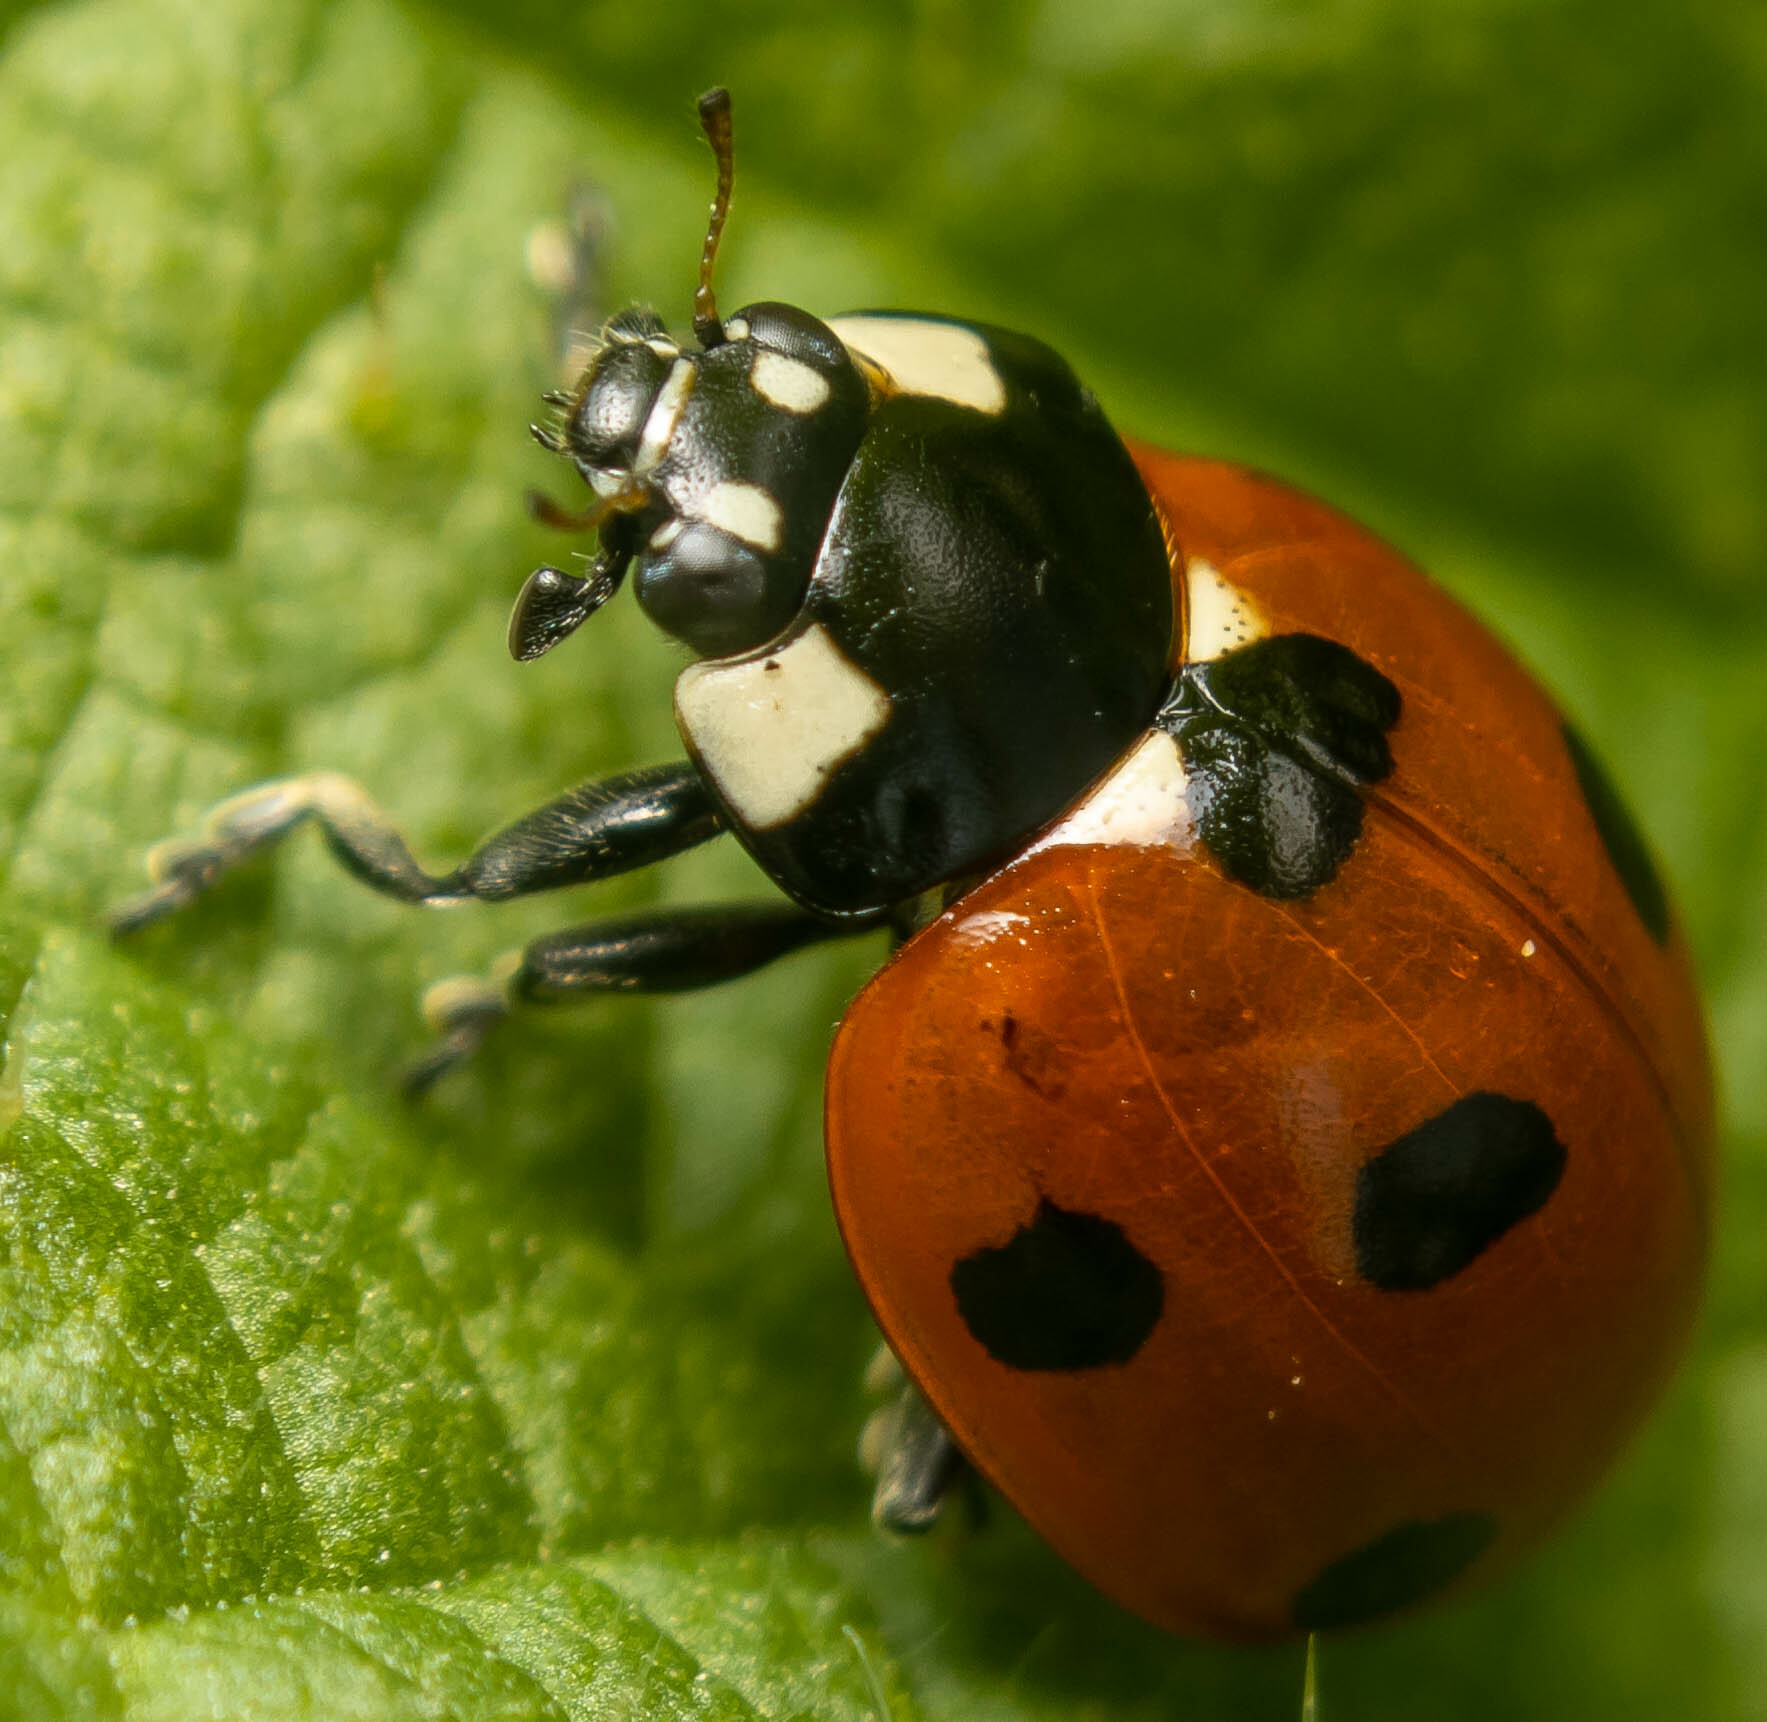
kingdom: Animalia
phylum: Arthropoda
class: Insecta
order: Coleoptera
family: Coccinellidae
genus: Coccinella
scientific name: Coccinella septempunctata
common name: Sevenspotted lady beetle
